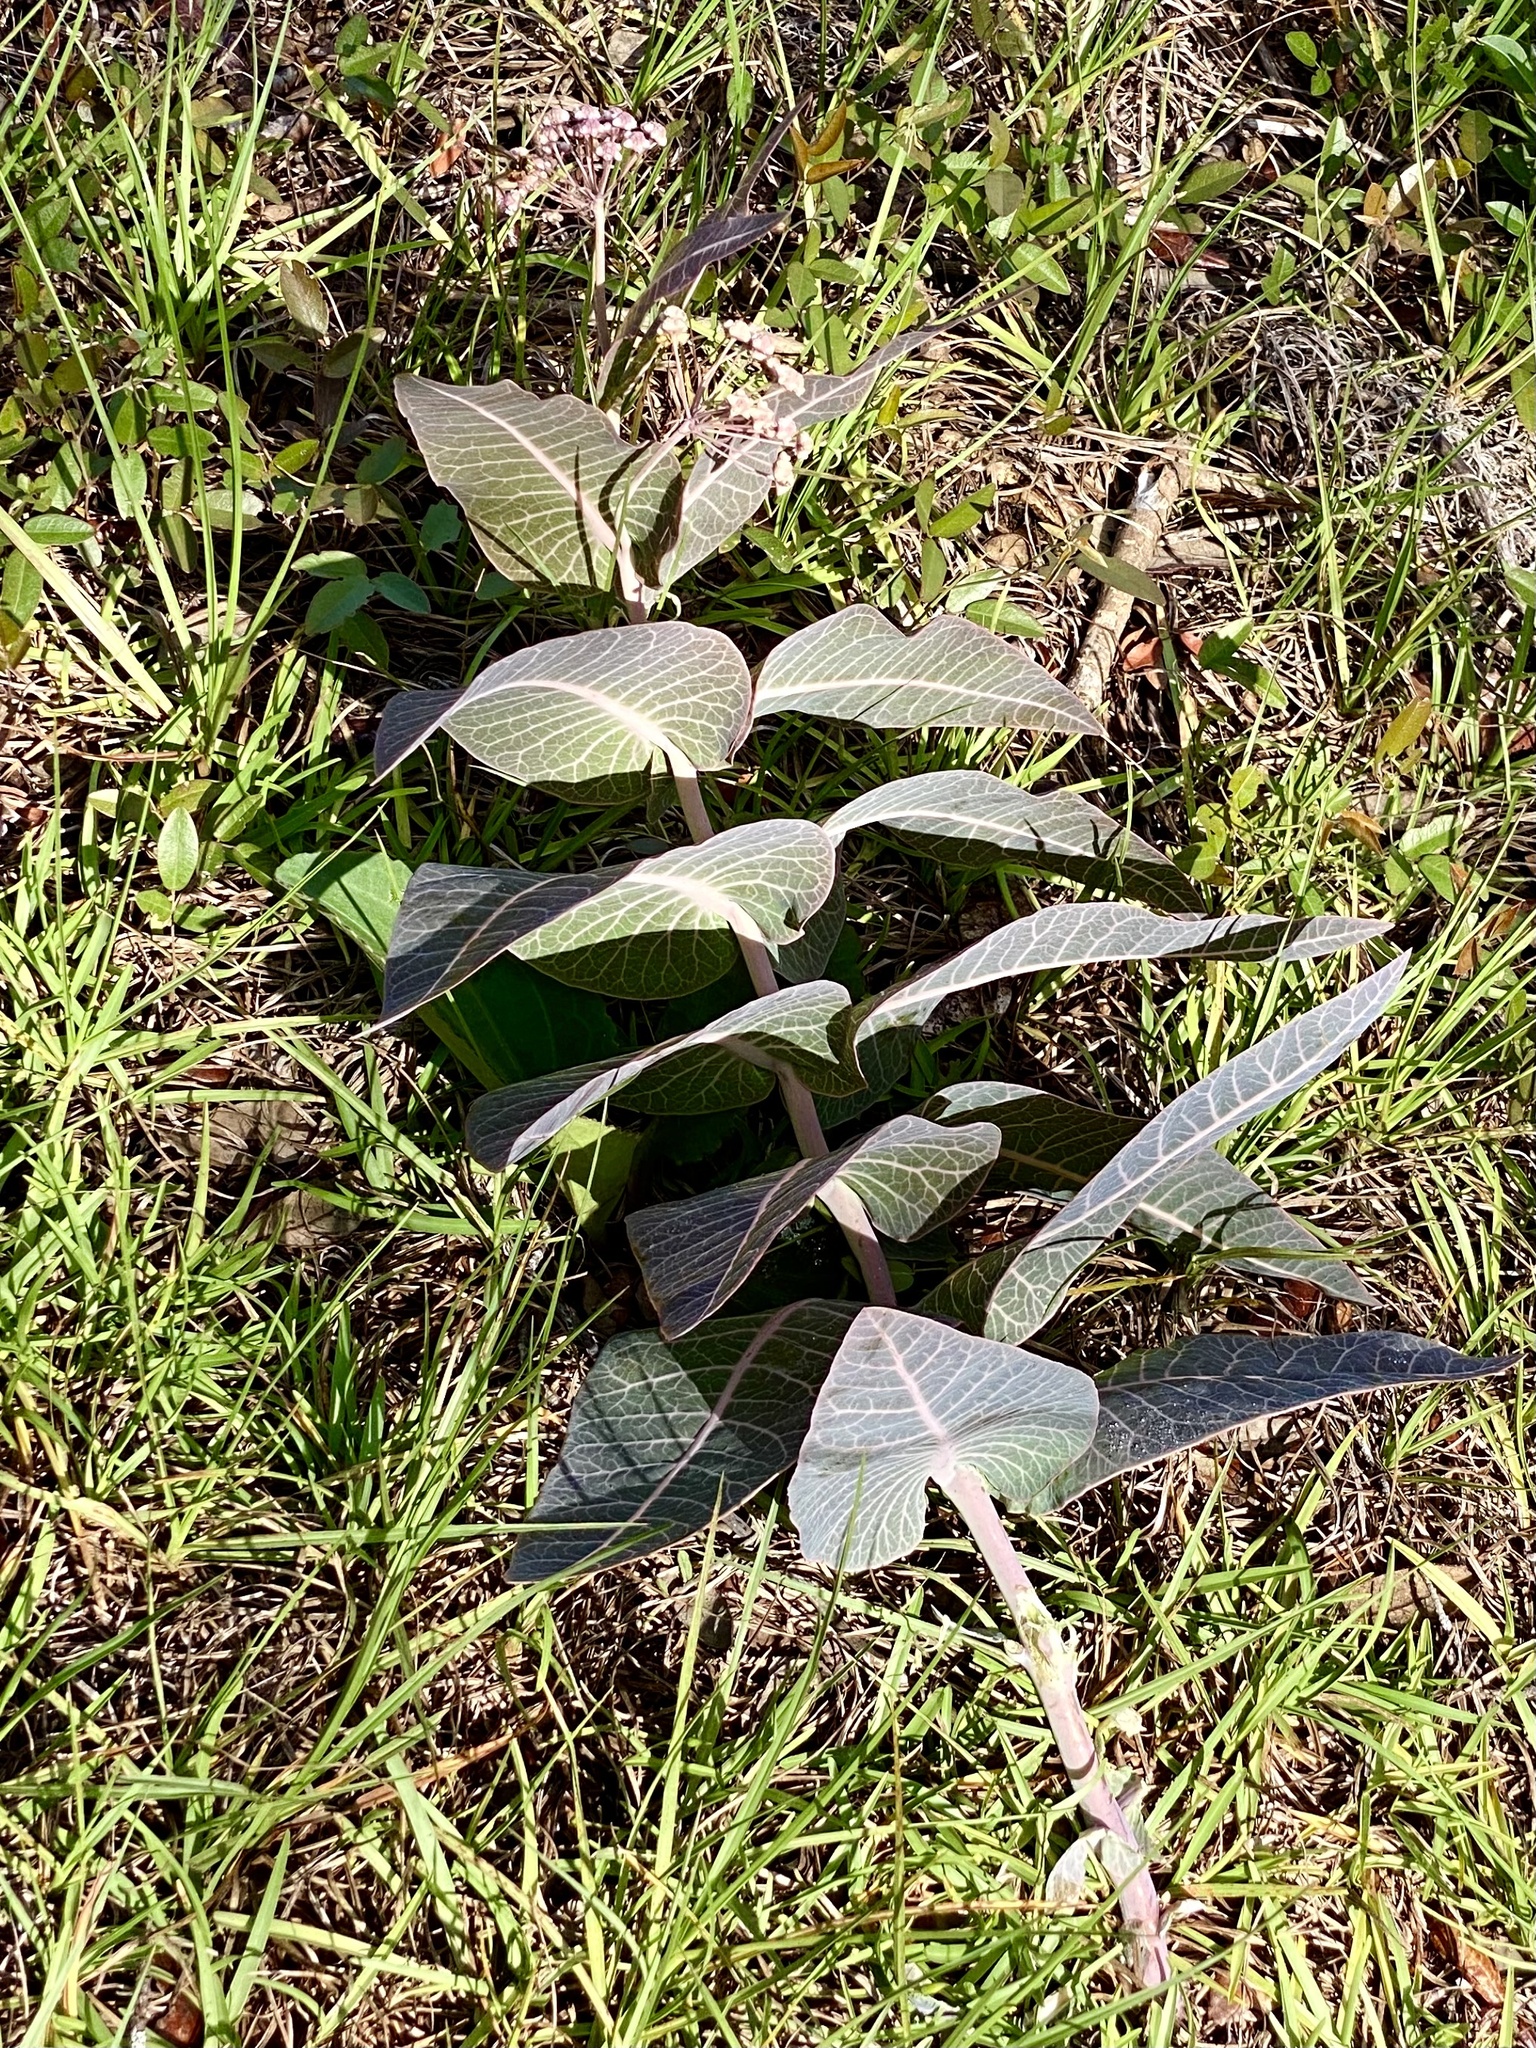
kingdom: Plantae
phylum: Tracheophyta
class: Magnoliopsida
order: Gentianales
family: Apocynaceae
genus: Asclepias
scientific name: Asclepias humistrata
